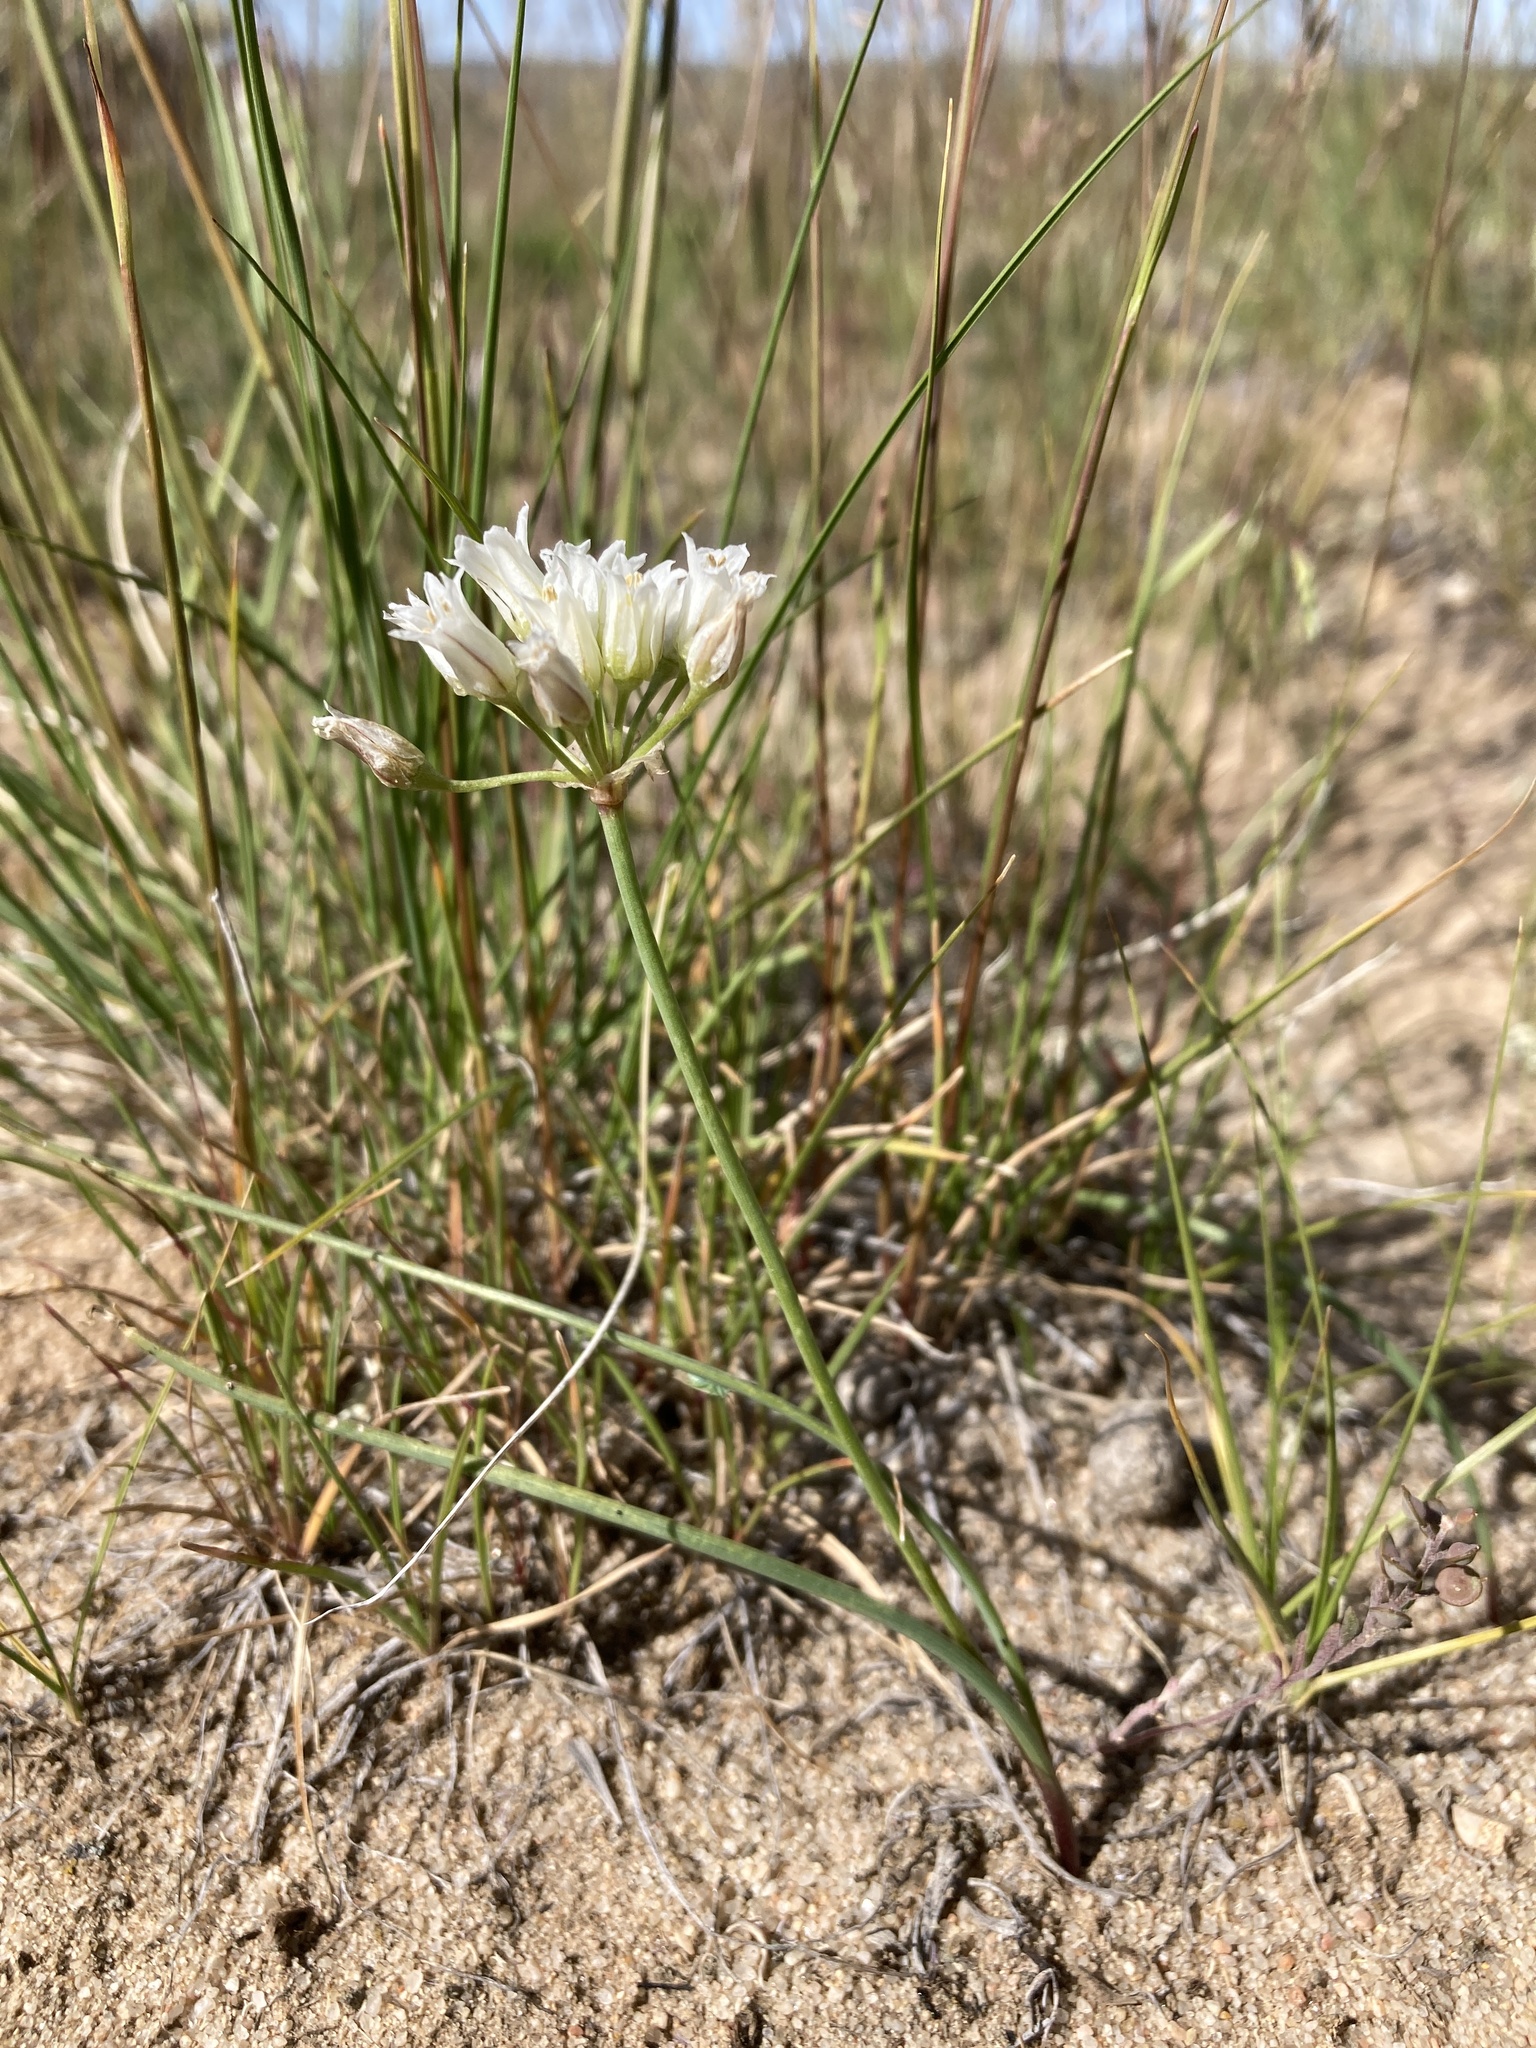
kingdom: Plantae
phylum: Tracheophyta
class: Liliopsida
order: Asparagales
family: Amaryllidaceae
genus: Allium
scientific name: Allium textile
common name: Prairie onion
